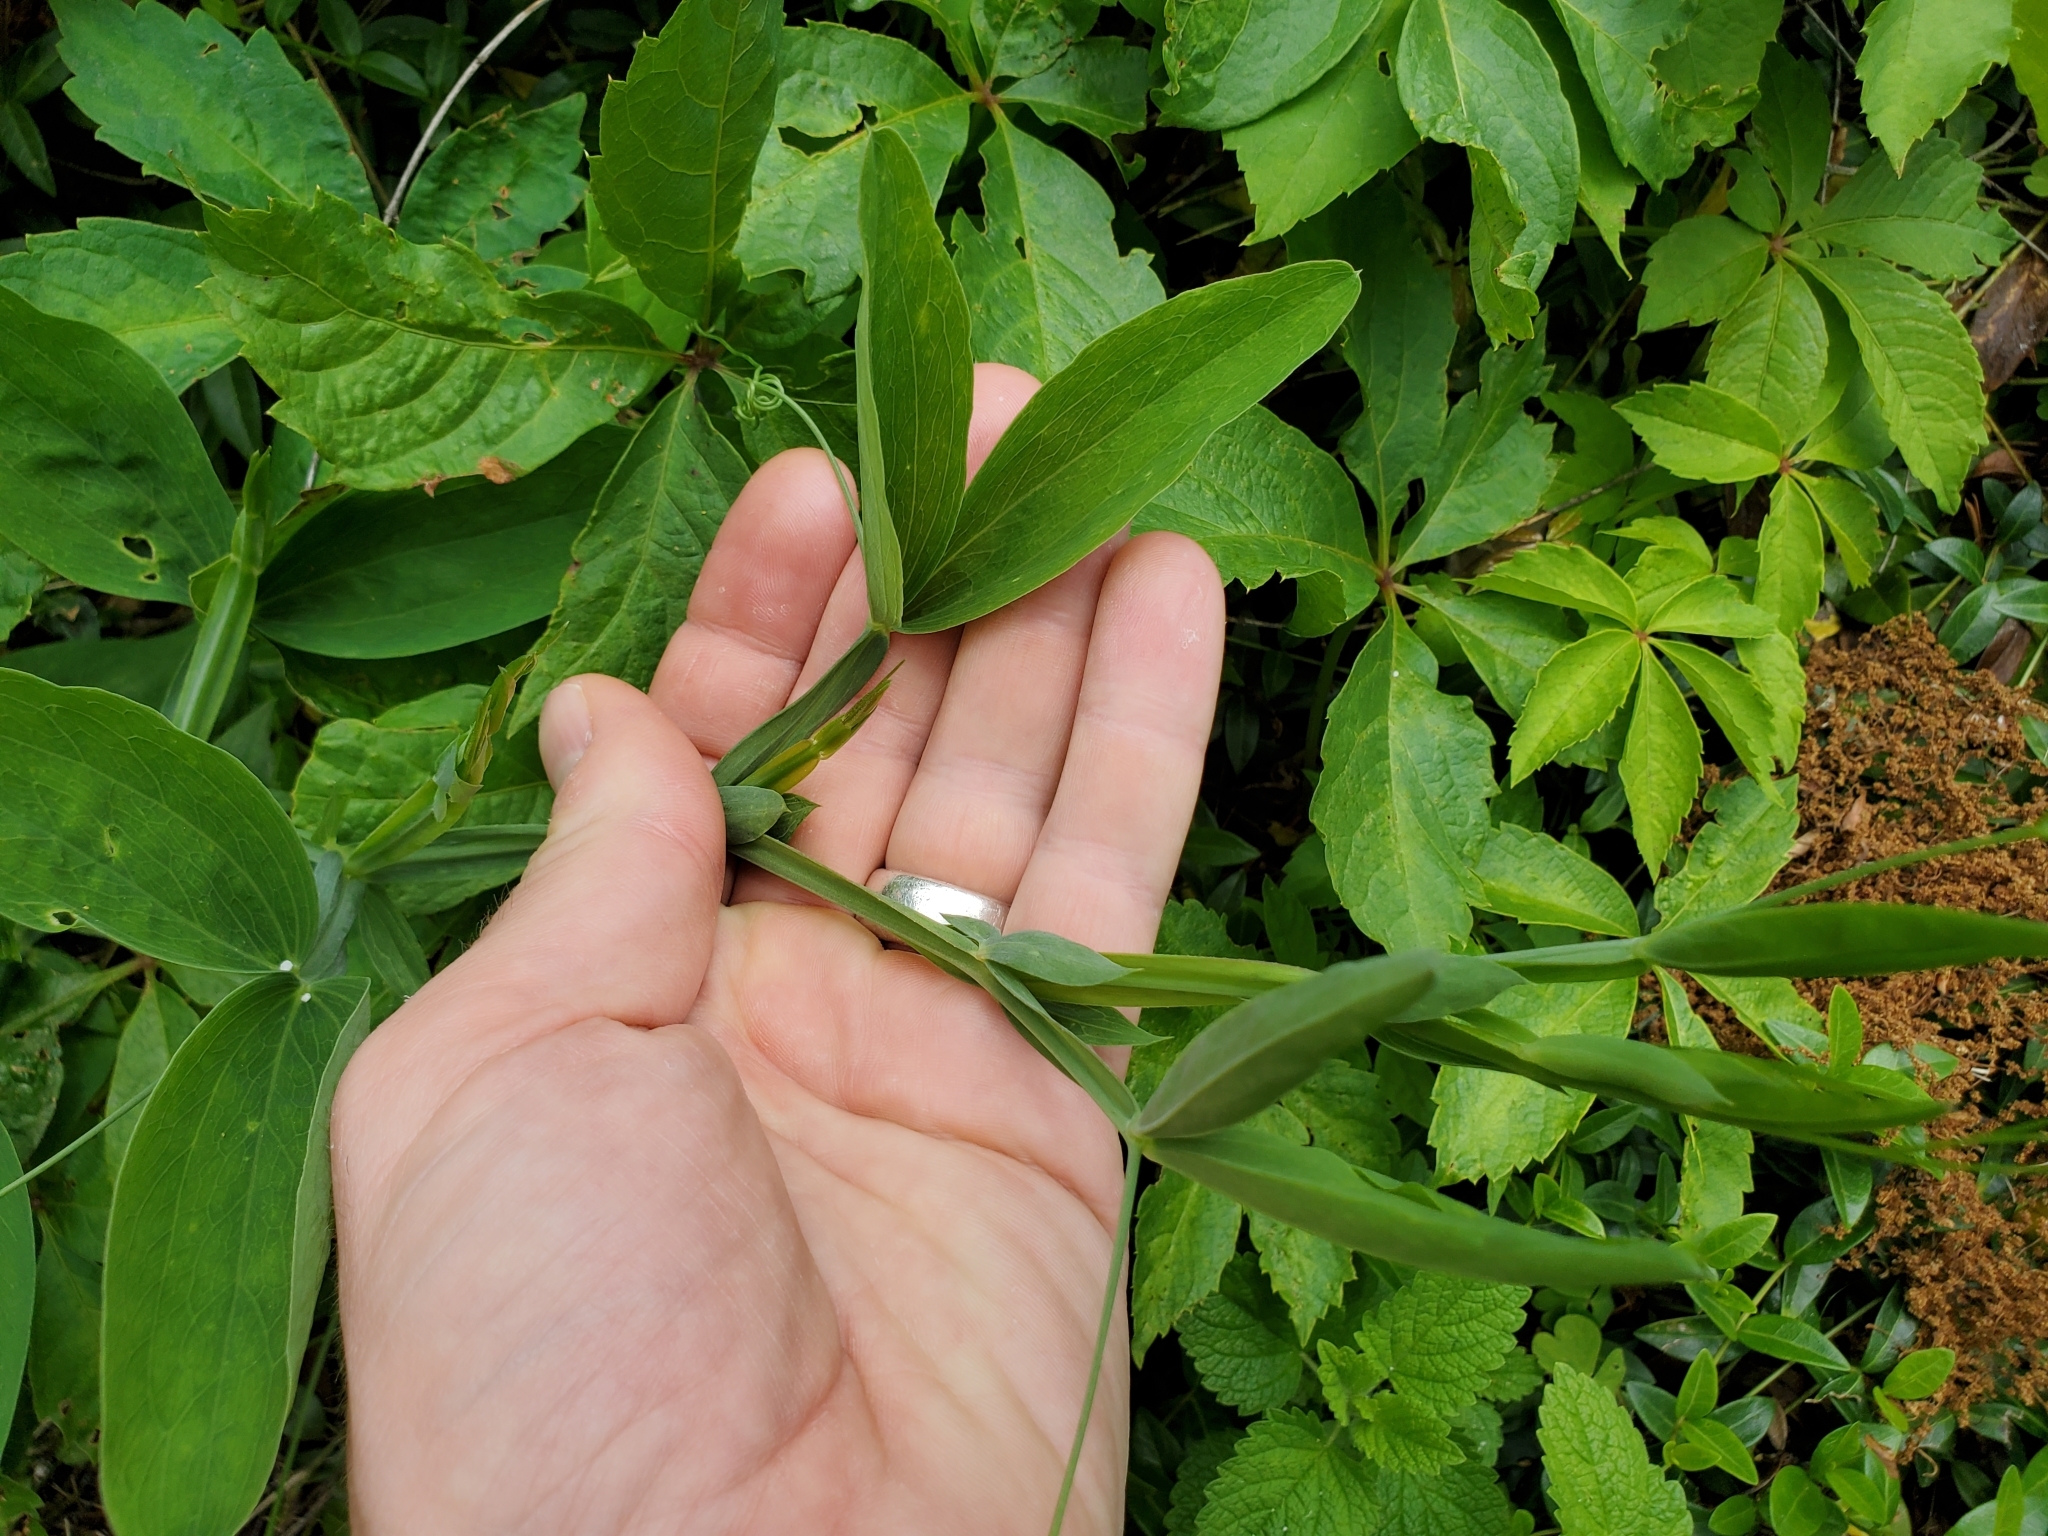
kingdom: Plantae
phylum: Tracheophyta
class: Magnoliopsida
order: Fabales
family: Fabaceae
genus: Lathyrus
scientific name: Lathyrus latifolius
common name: Perennial pea
